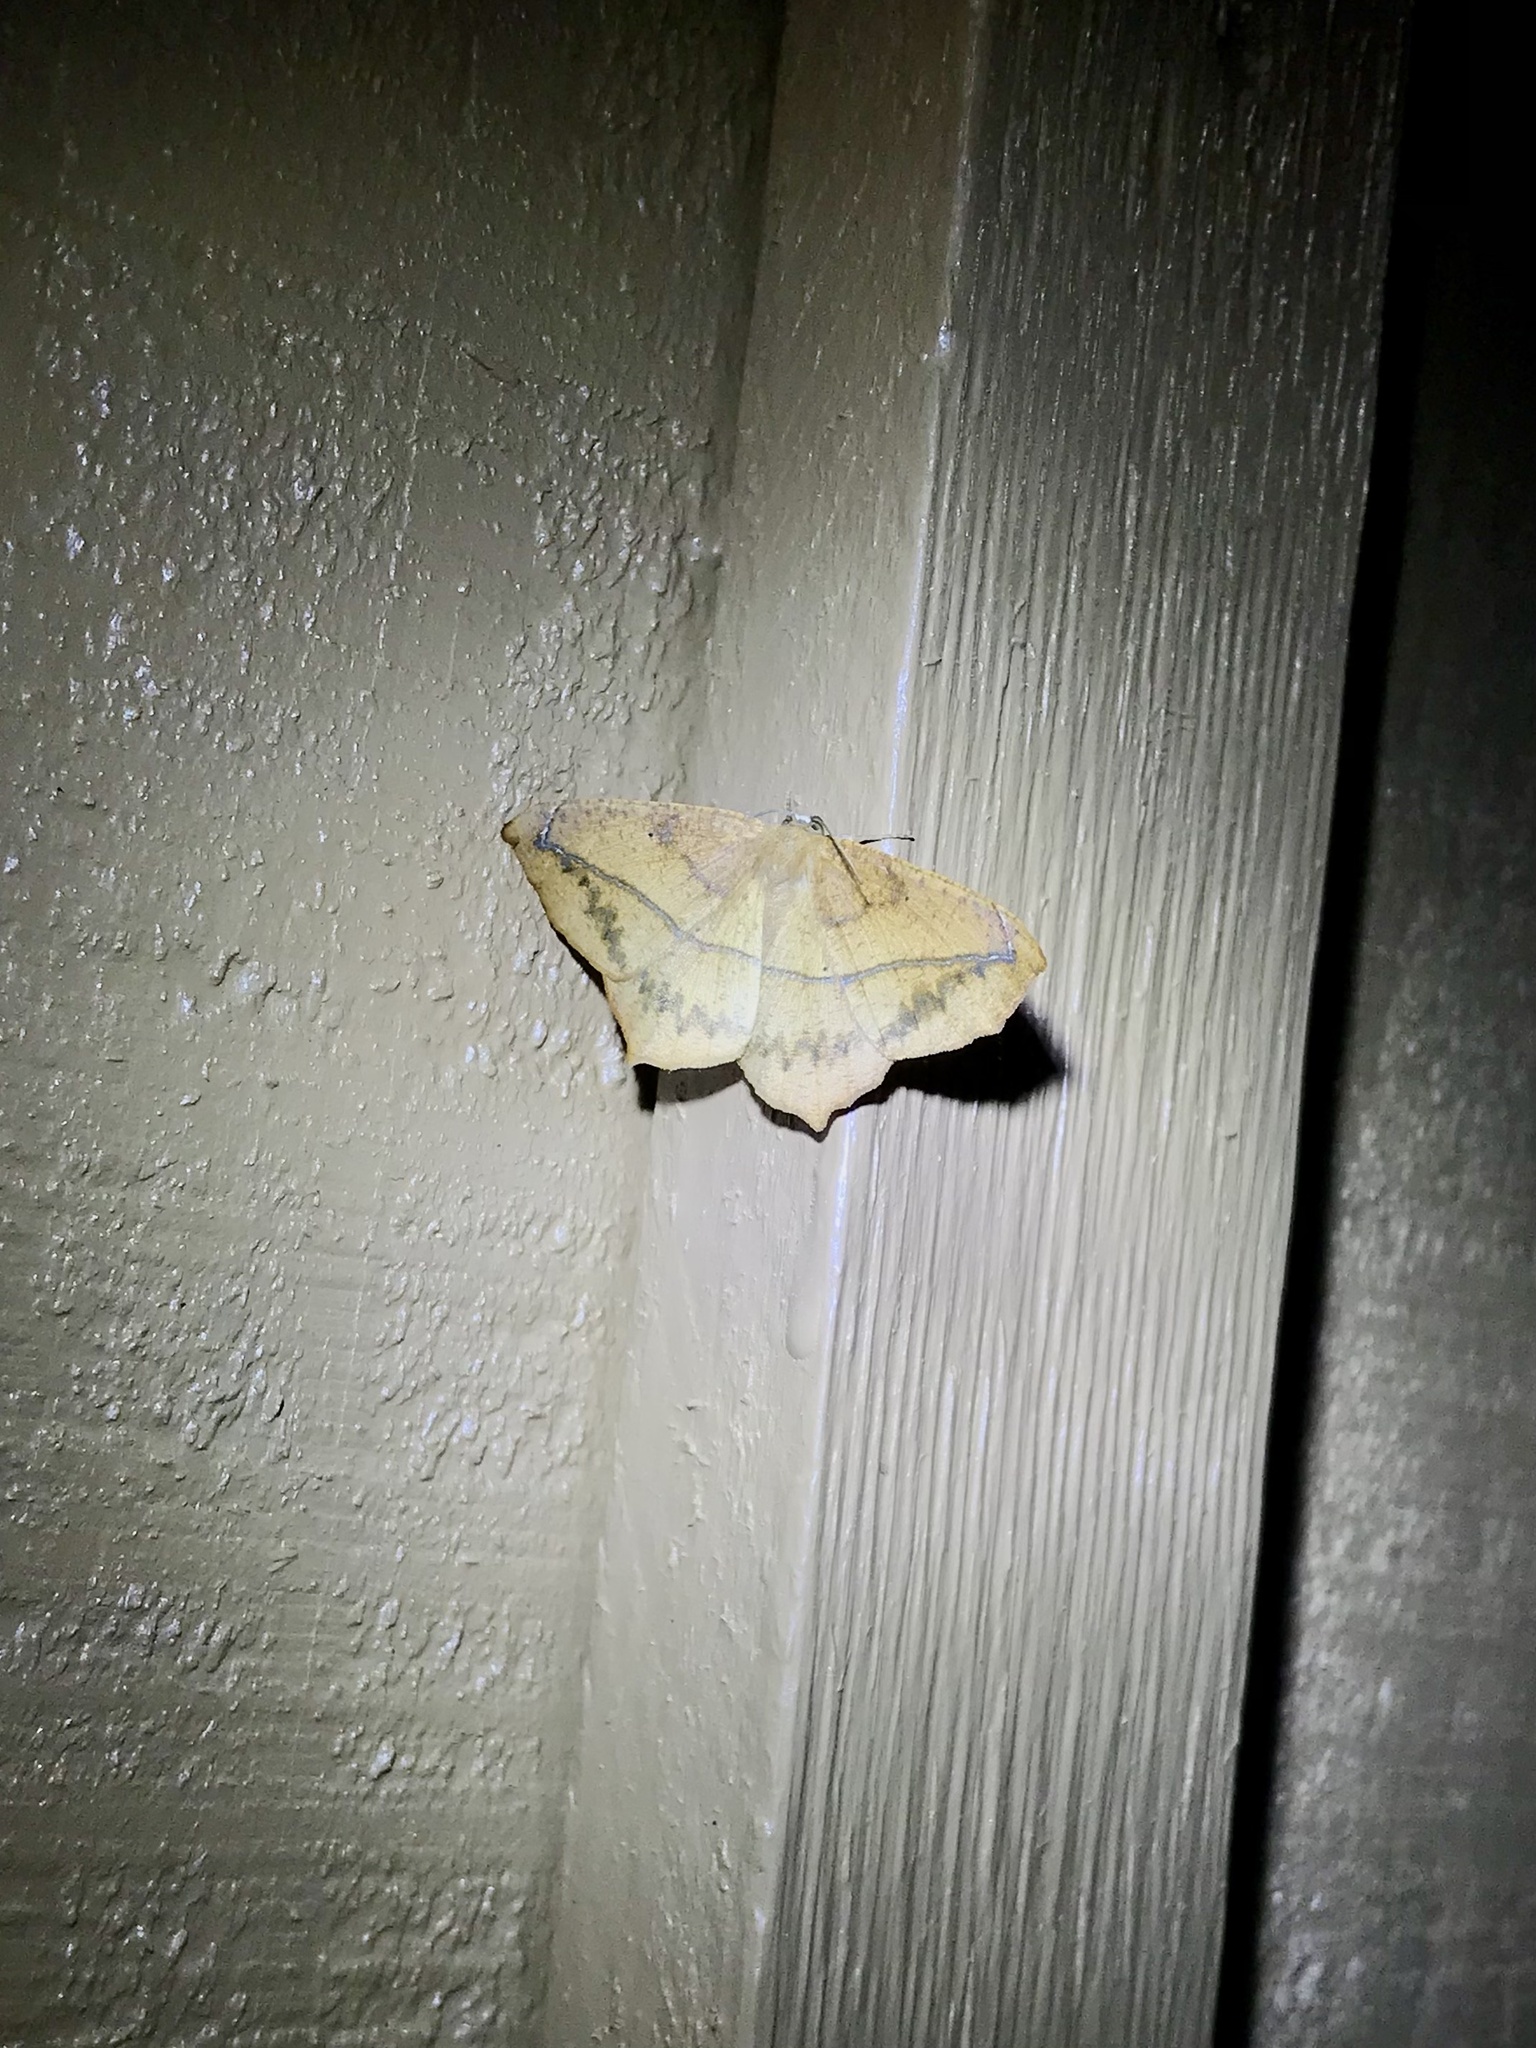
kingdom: Animalia
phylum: Arthropoda
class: Insecta
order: Lepidoptera
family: Geometridae
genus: Prochoerodes
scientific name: Prochoerodes lineola
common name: Large maple spanworm
